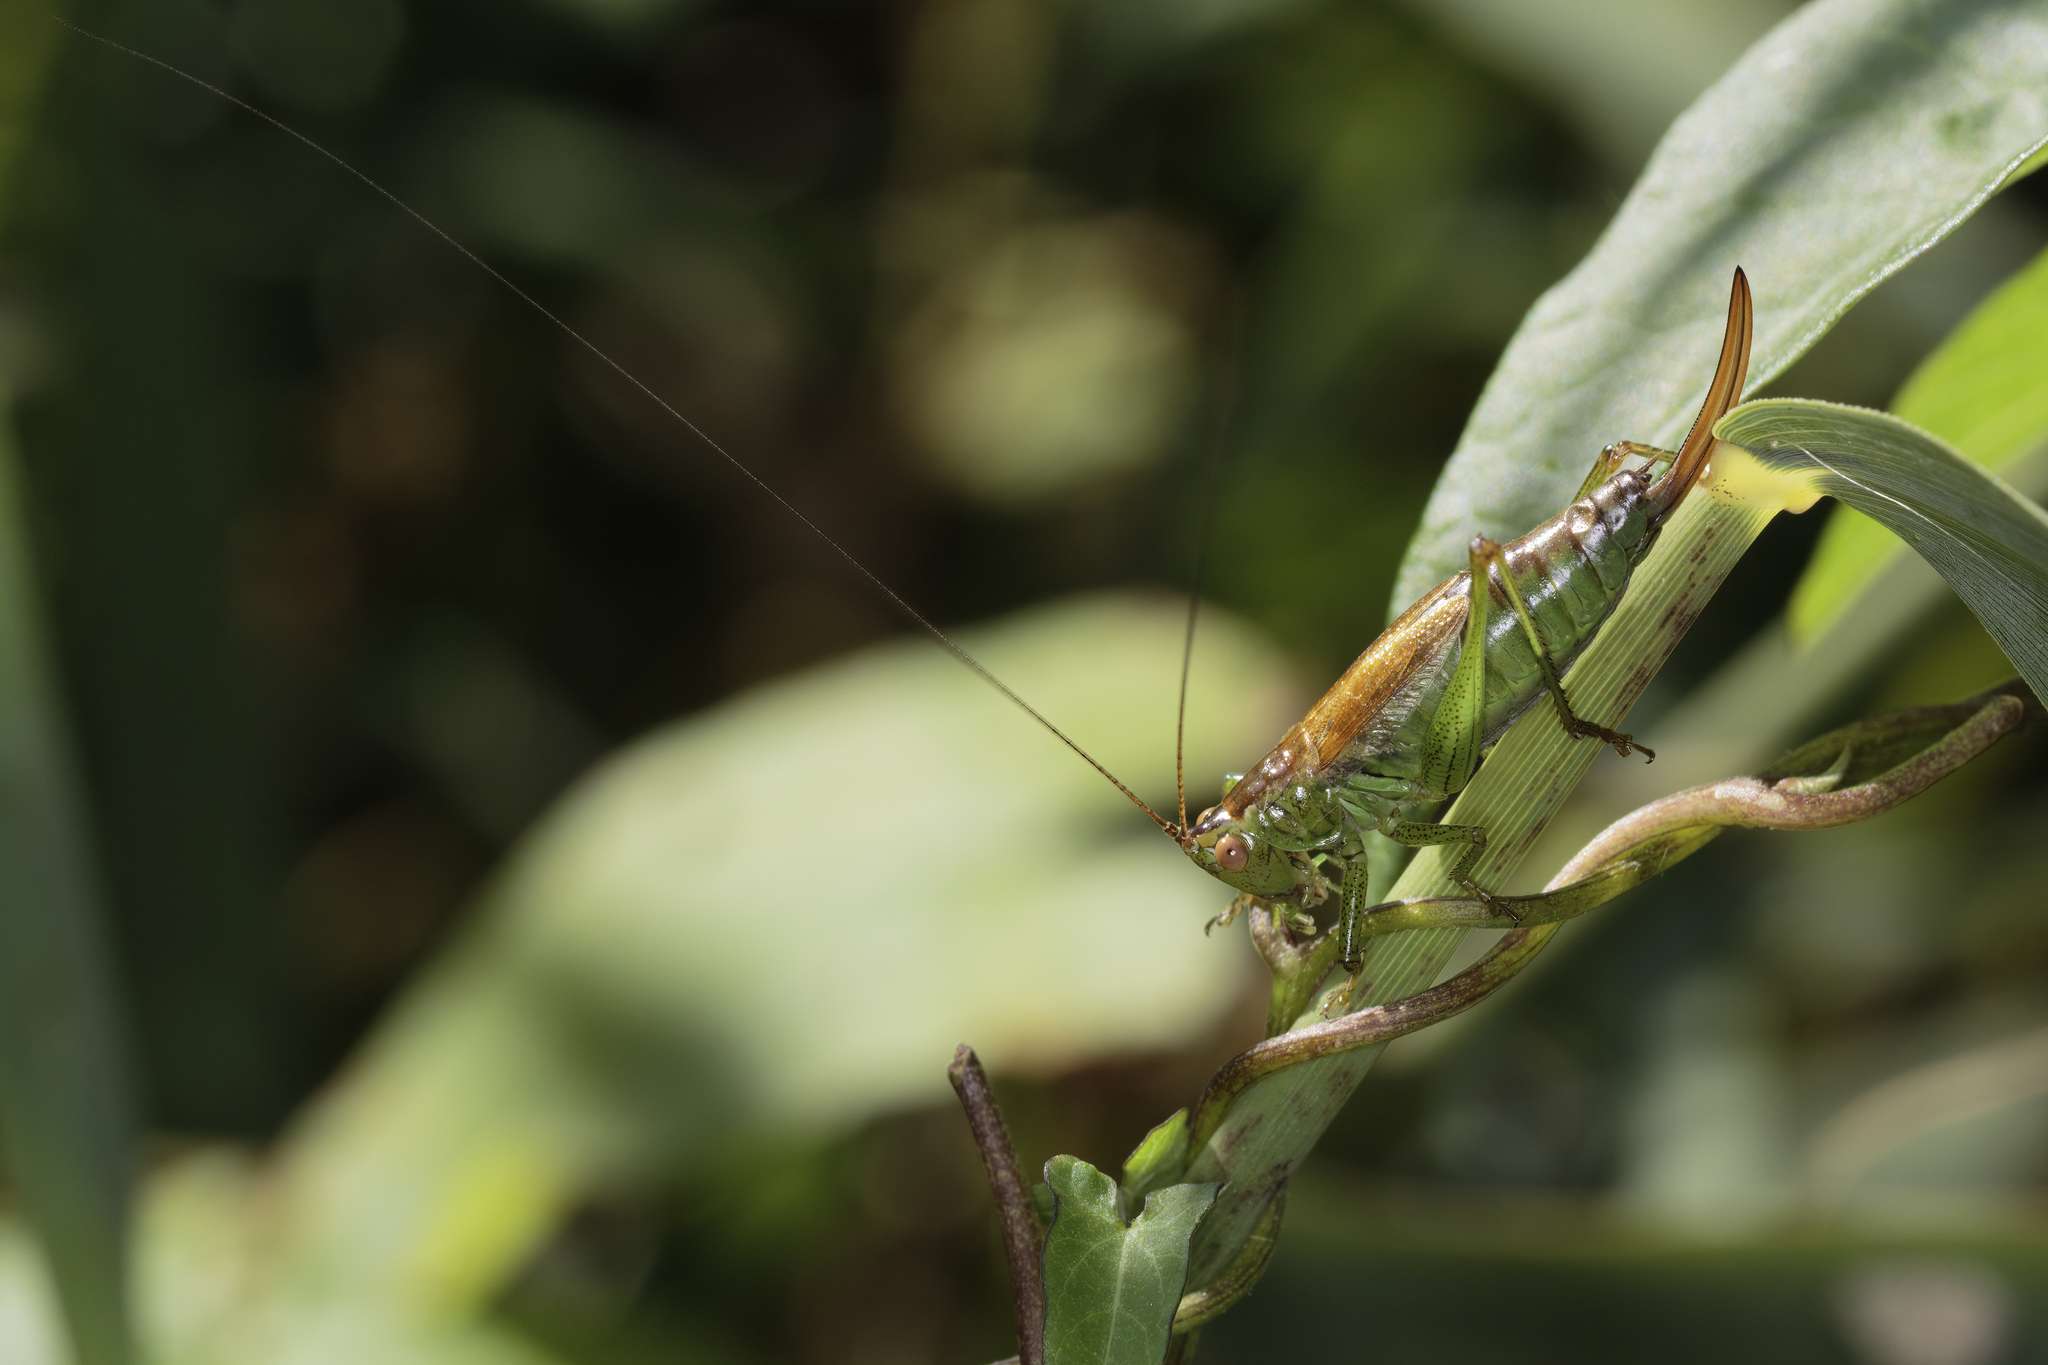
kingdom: Animalia
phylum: Arthropoda
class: Insecta
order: Orthoptera
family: Tettigoniidae
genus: Conocephalus
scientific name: Conocephalus dorsalis
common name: Short-winged conehead
